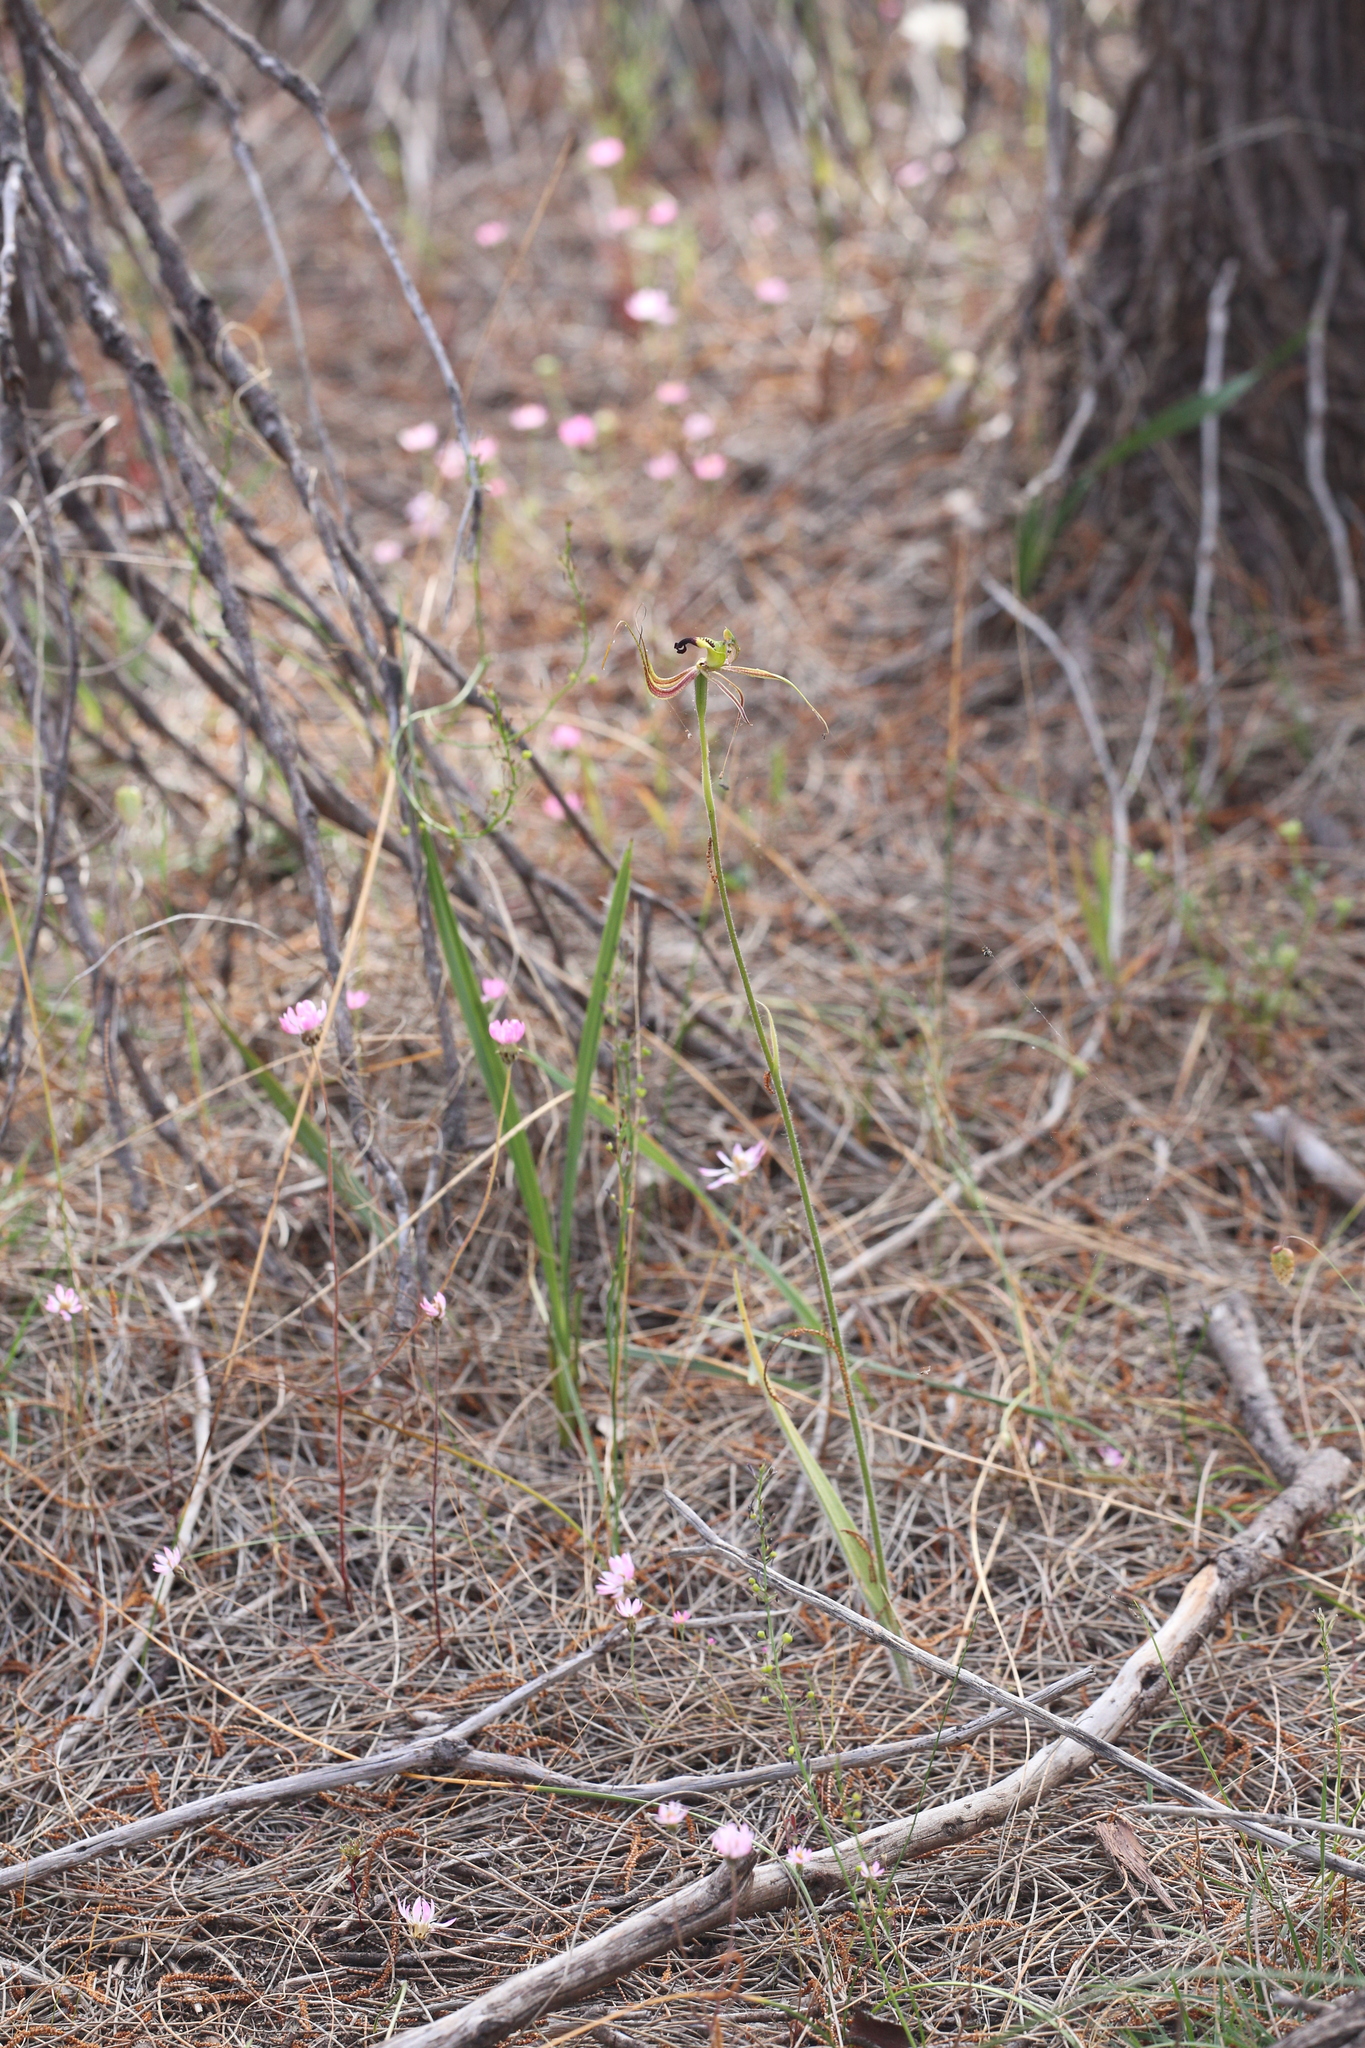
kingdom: Plantae
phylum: Tracheophyta
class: Liliopsida
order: Asparagales
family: Orchidaceae
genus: Caladenia
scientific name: Caladenia integra
